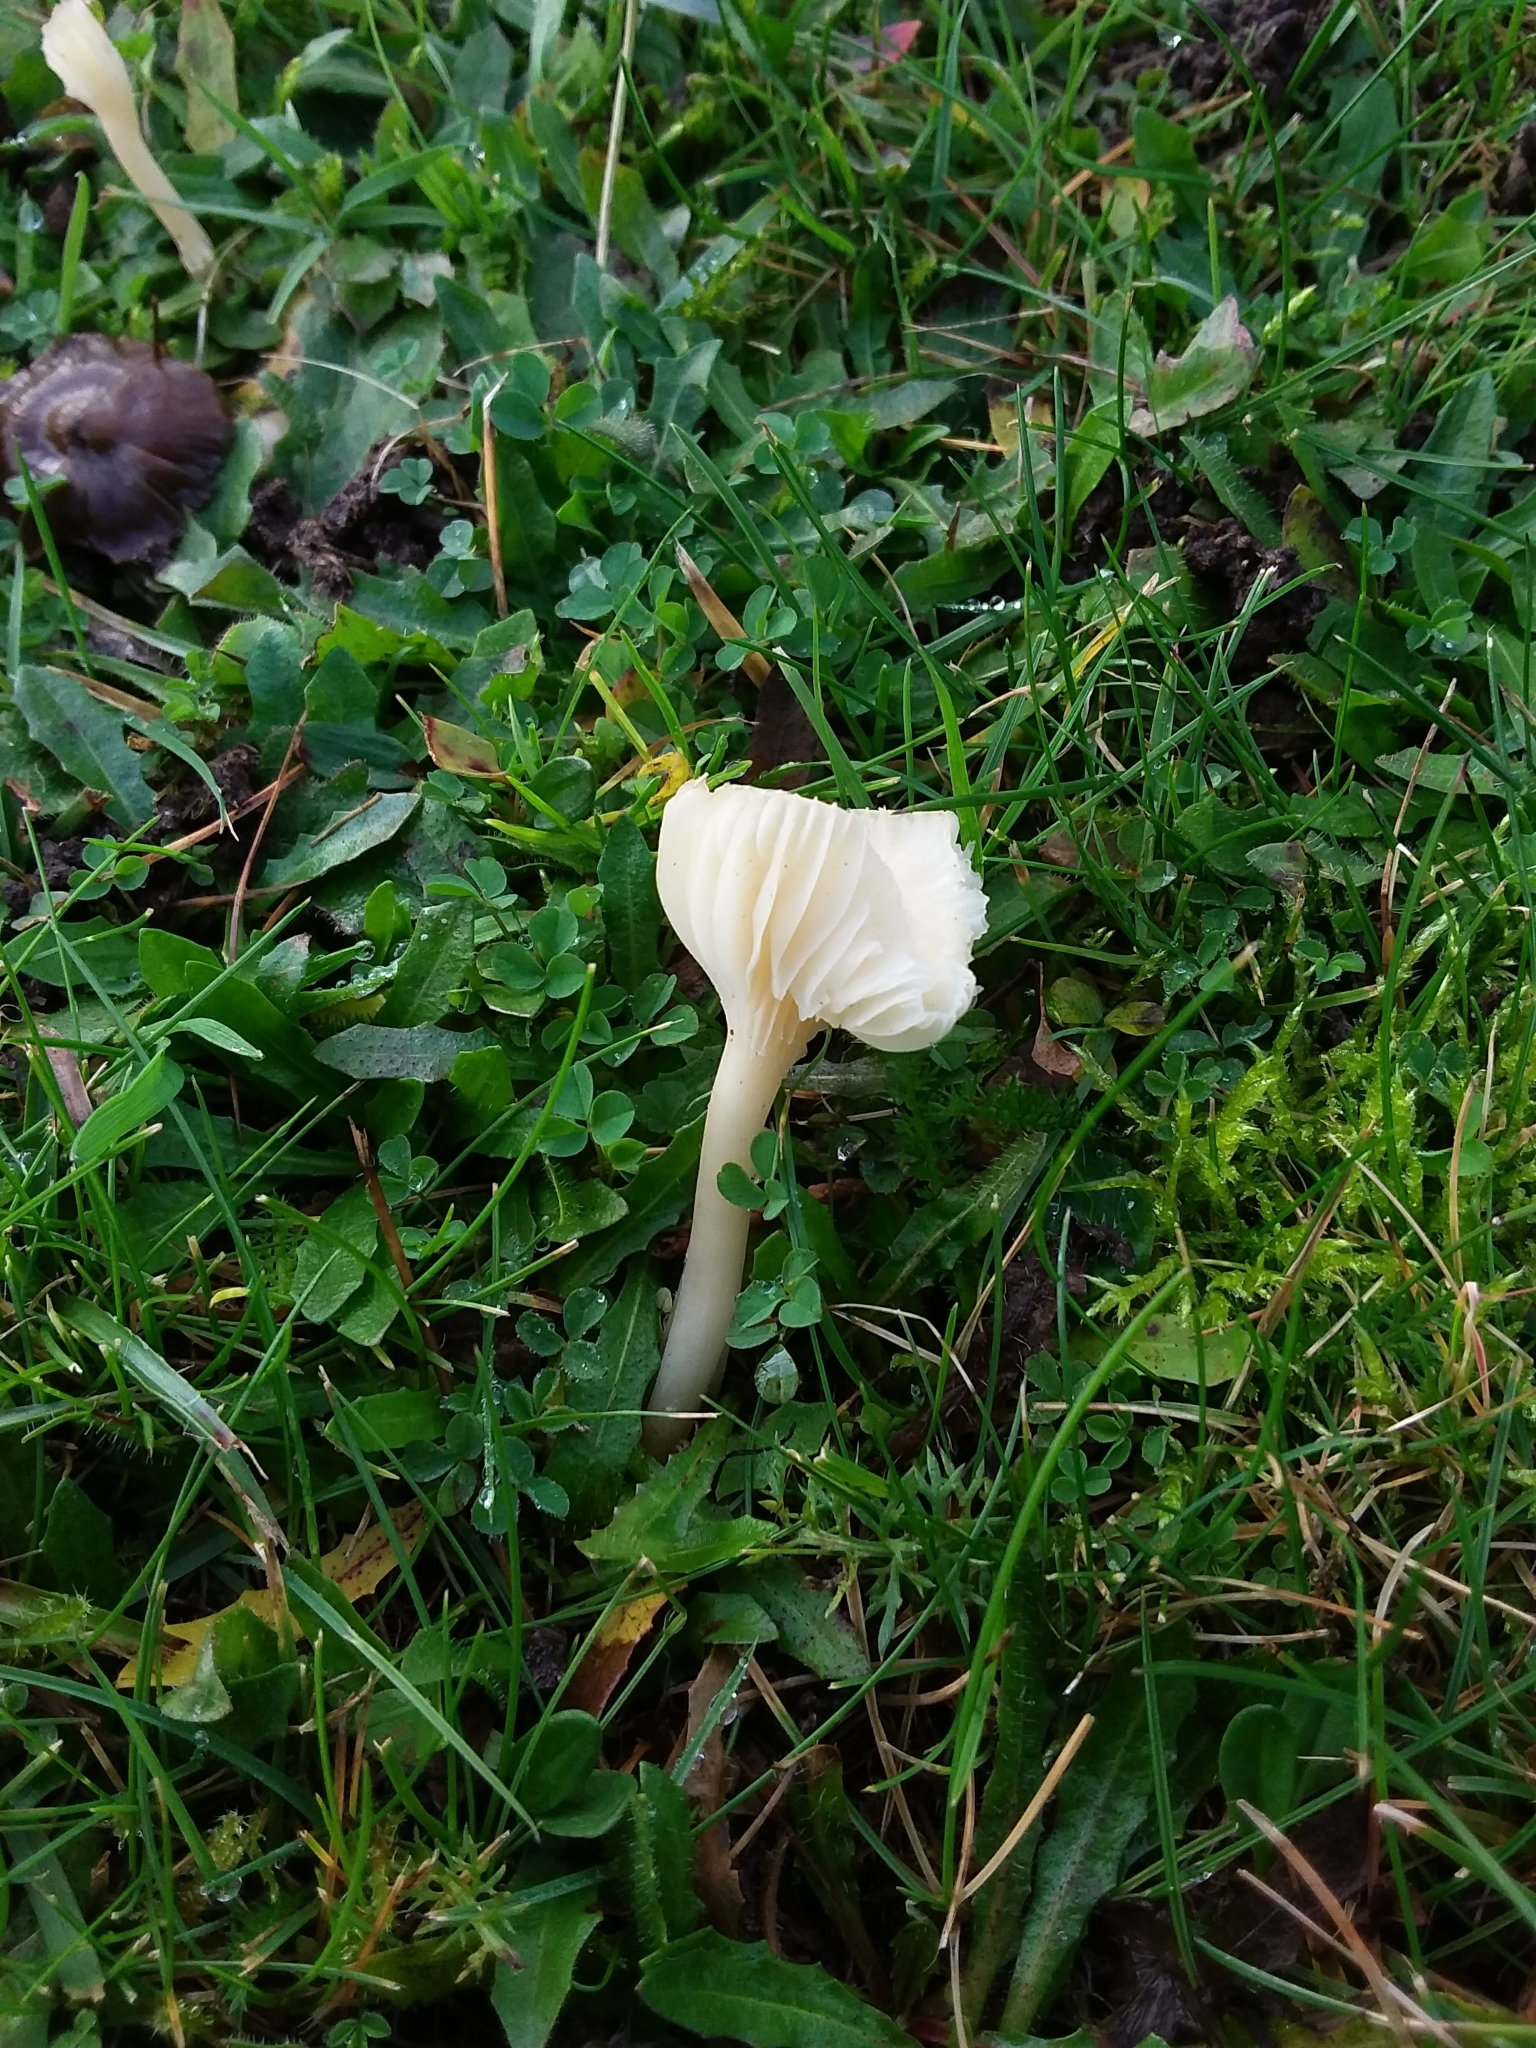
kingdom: Fungi
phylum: Basidiomycota
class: Agaricomycetes
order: Agaricales
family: Hygrophoraceae
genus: Cuphophyllus
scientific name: Cuphophyllus virgineus
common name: Snowy waxcap
